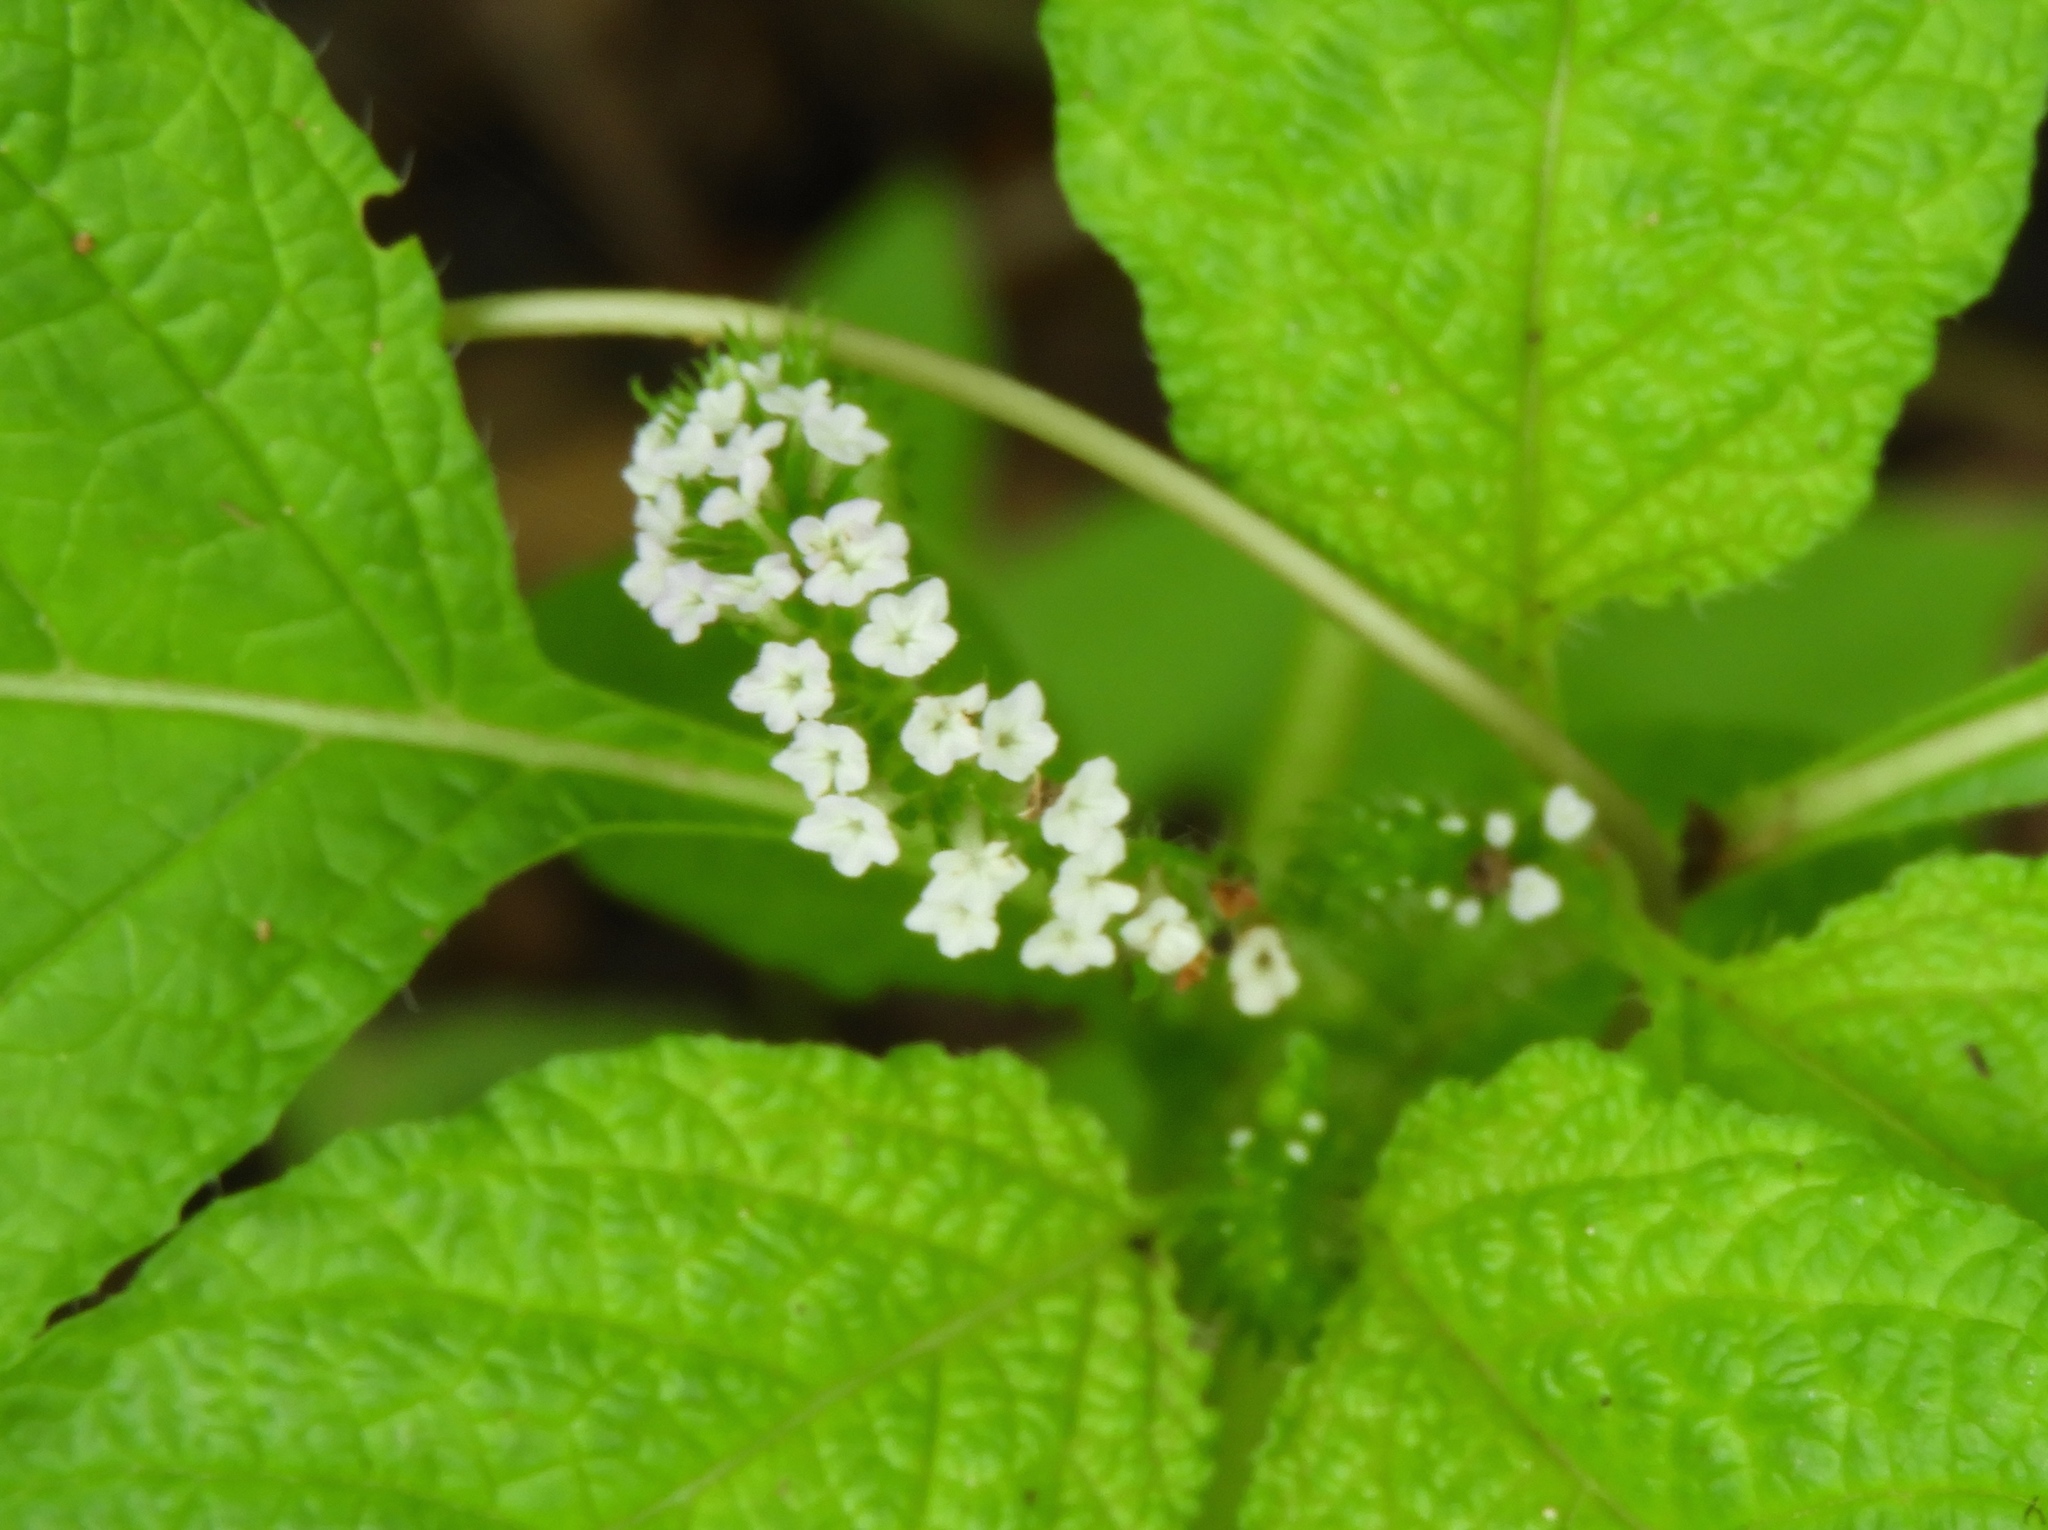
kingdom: Plantae
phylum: Tracheophyta
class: Magnoliopsida
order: Boraginales
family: Heliotropiaceae
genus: Heliotropium
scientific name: Heliotropium angiospermum
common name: Eye bright
